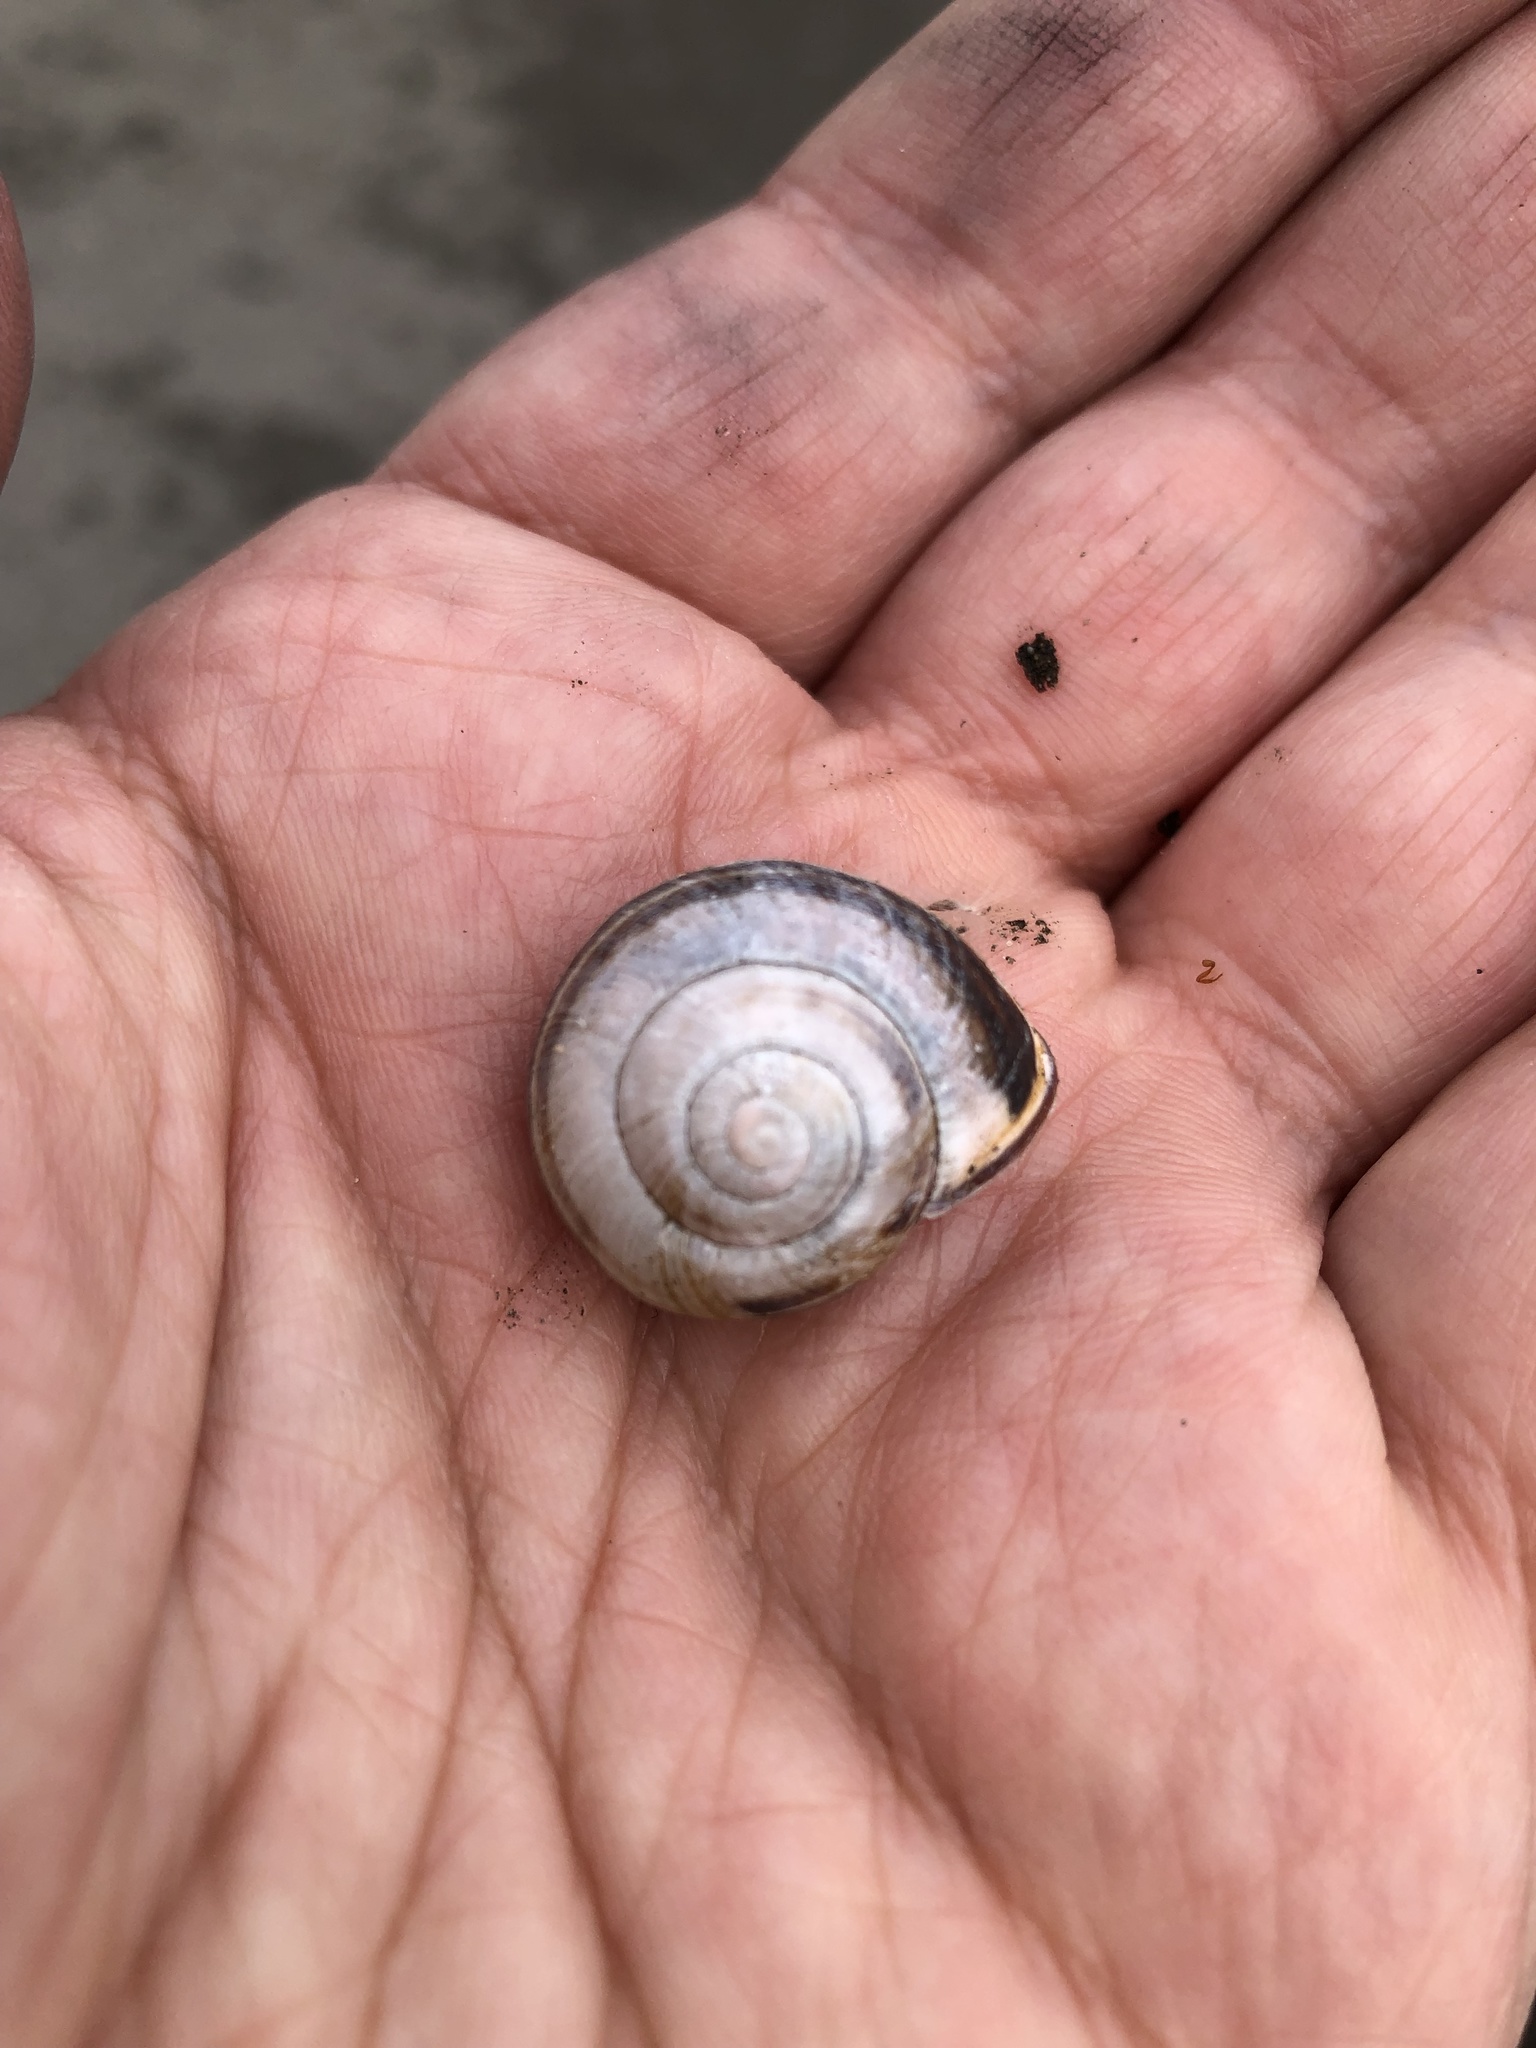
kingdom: Animalia
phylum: Mollusca
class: Gastropoda
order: Stylommatophora
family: Helicidae
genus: Cepaea
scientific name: Cepaea nemoralis
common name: Grovesnail
